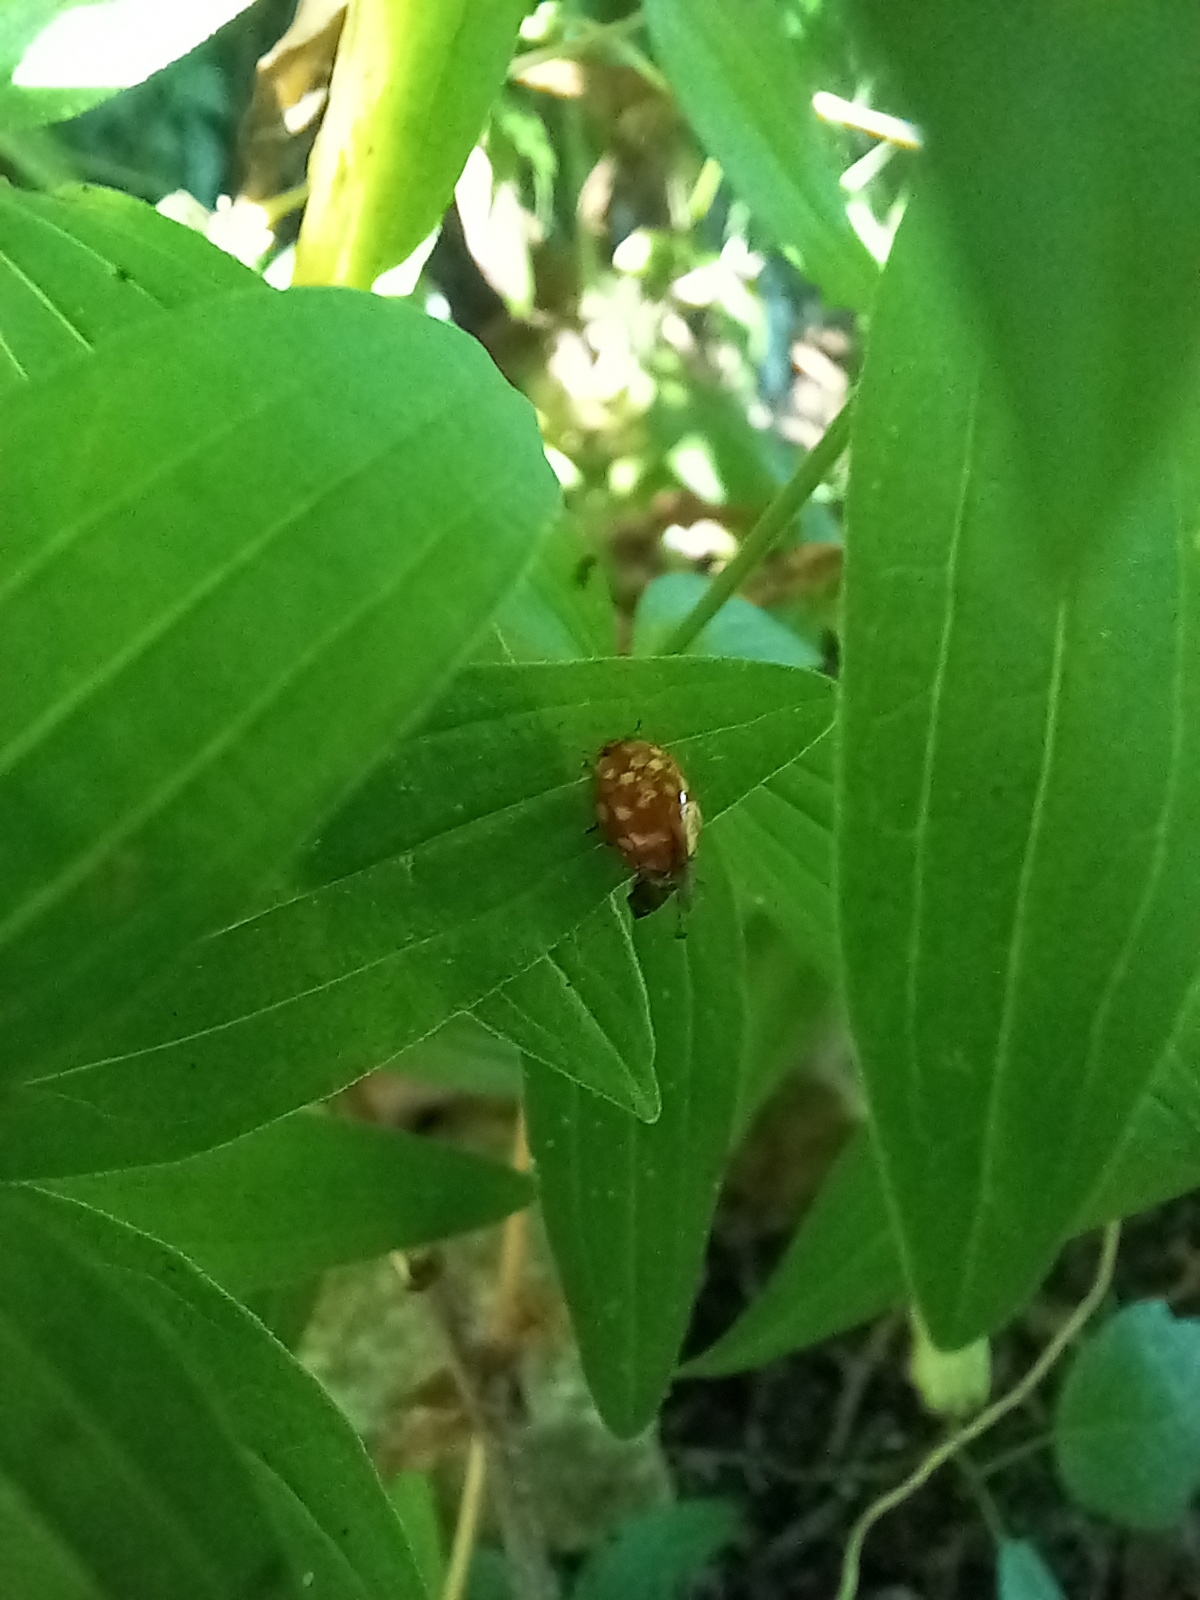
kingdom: Animalia
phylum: Arthropoda
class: Insecta
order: Coleoptera
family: Coccinellidae
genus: Calvia
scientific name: Calvia quatuordecimguttata
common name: Cream-spot ladybird
